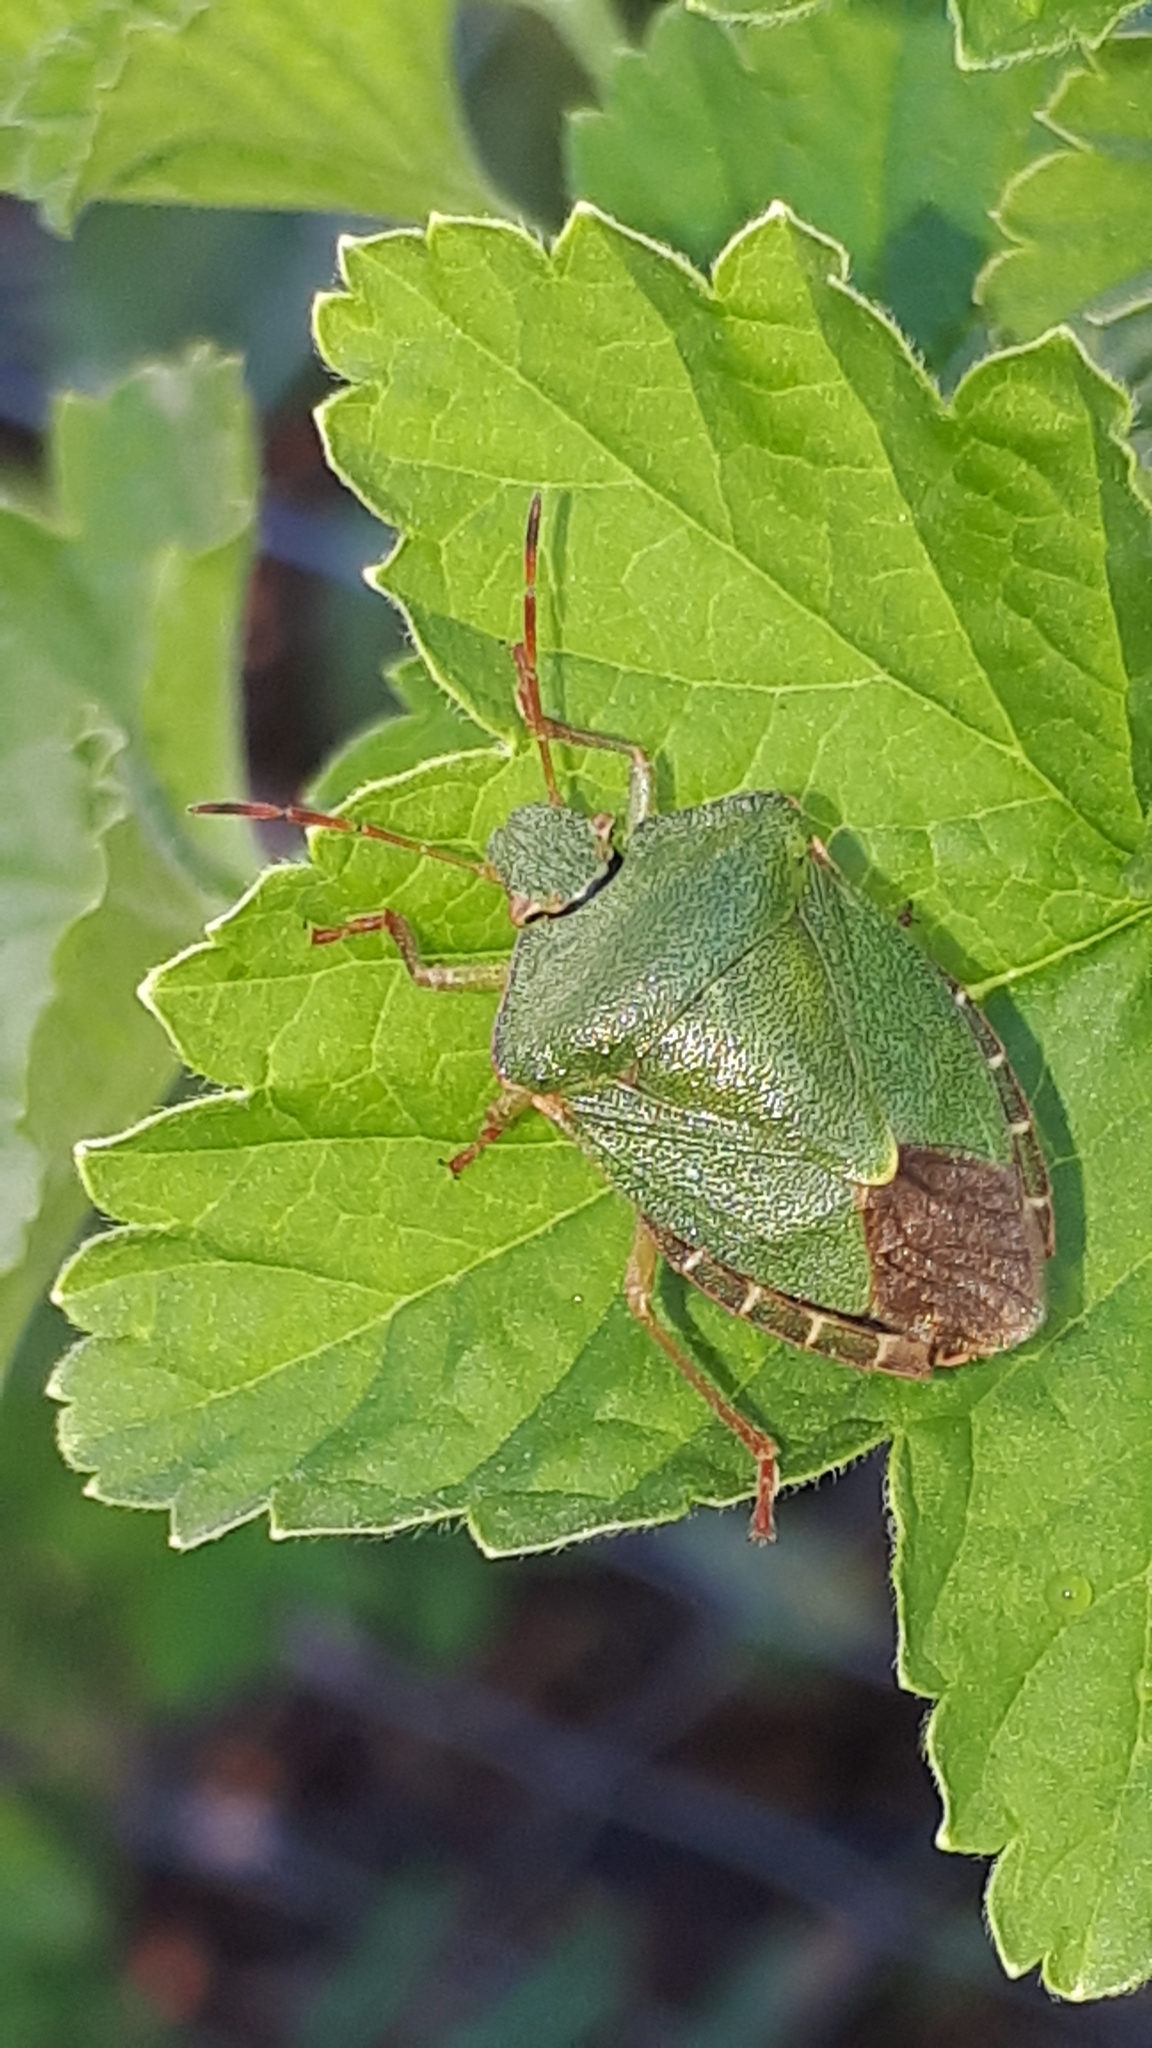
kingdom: Animalia
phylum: Arthropoda
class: Insecta
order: Hemiptera
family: Pentatomidae
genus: Palomena
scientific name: Palomena prasina
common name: Green shieldbug
